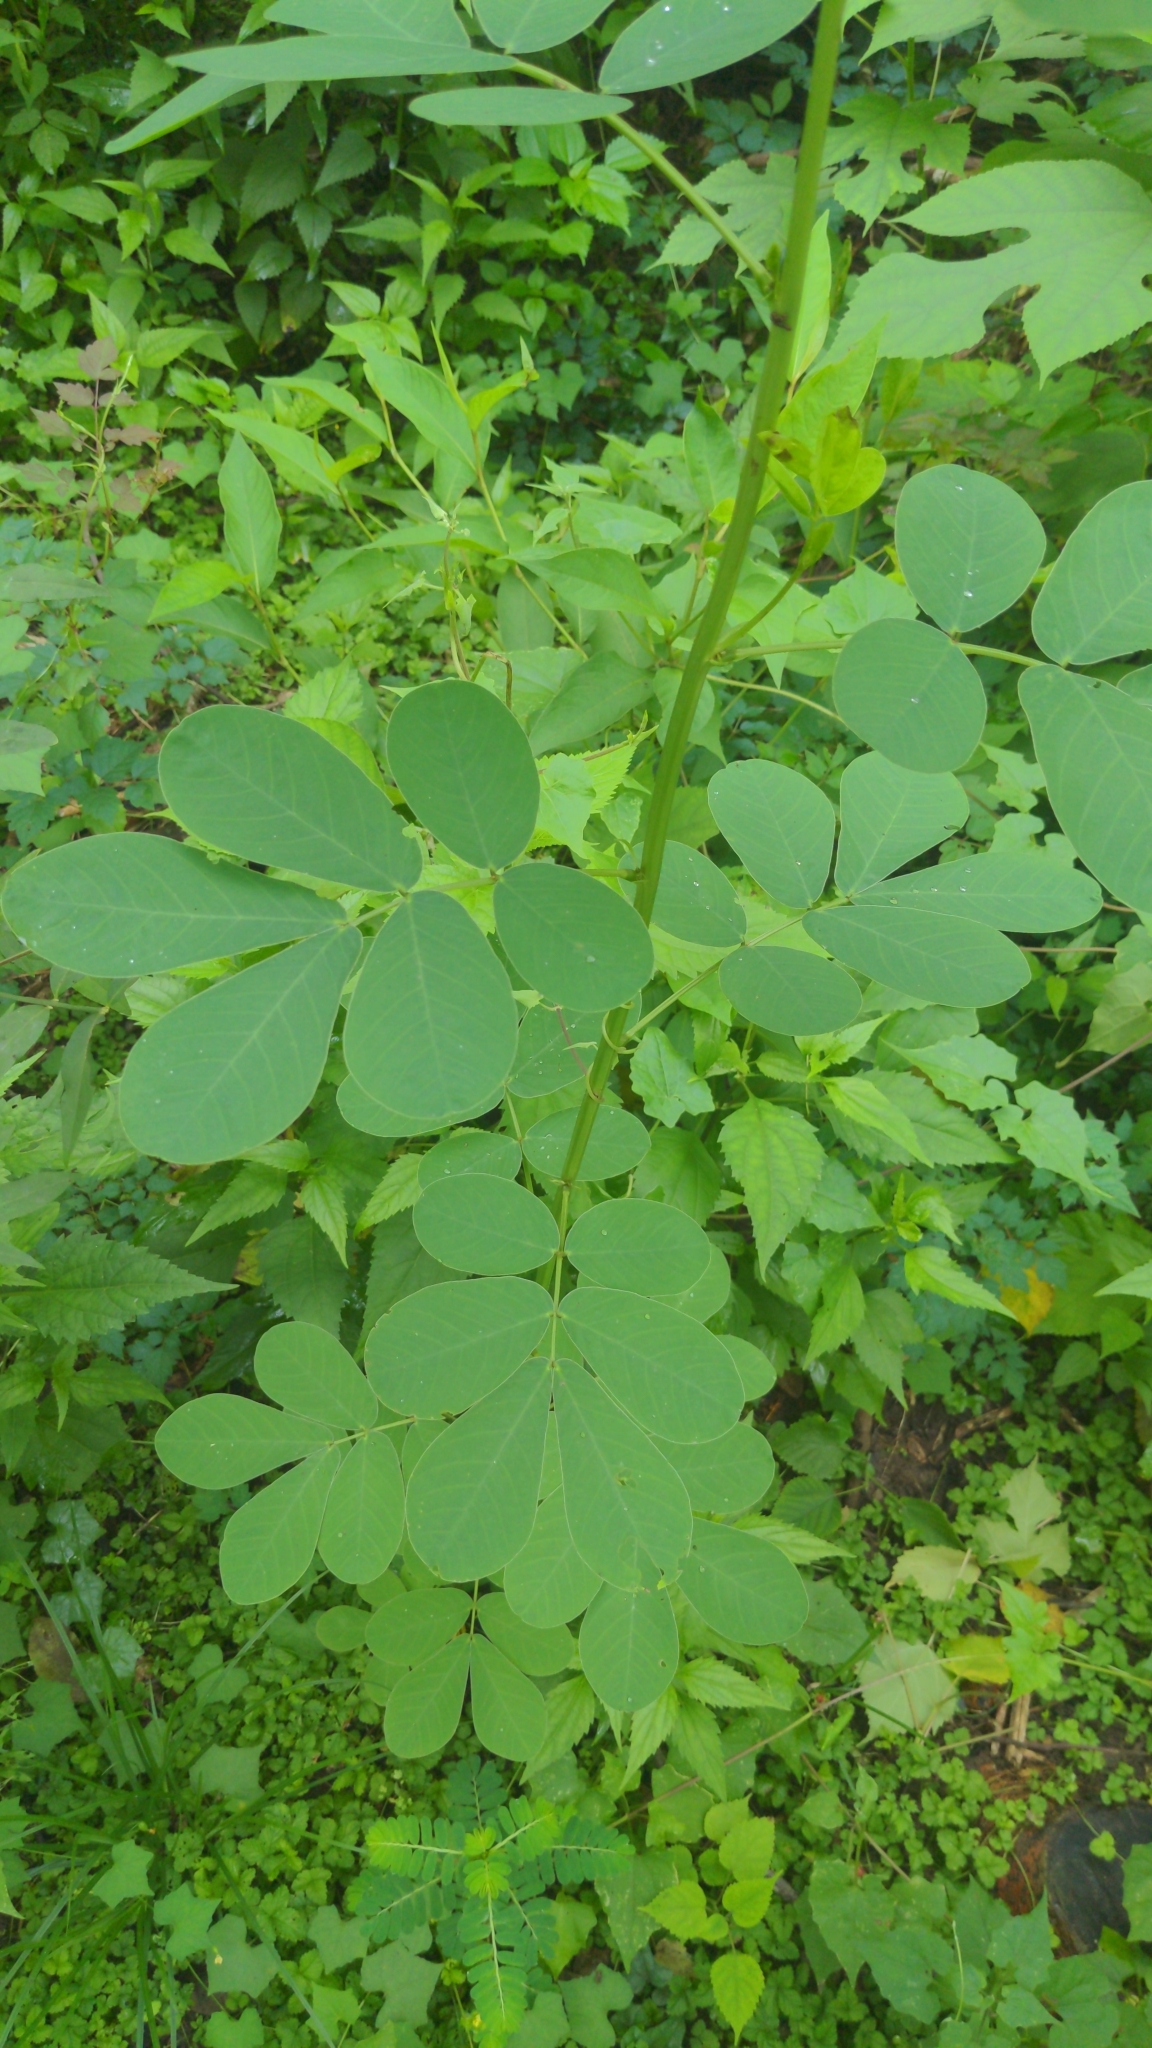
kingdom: Plantae
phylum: Tracheophyta
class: Magnoliopsida
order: Fabales
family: Fabaceae
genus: Senna
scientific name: Senna obtusifolia
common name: Java-bean
